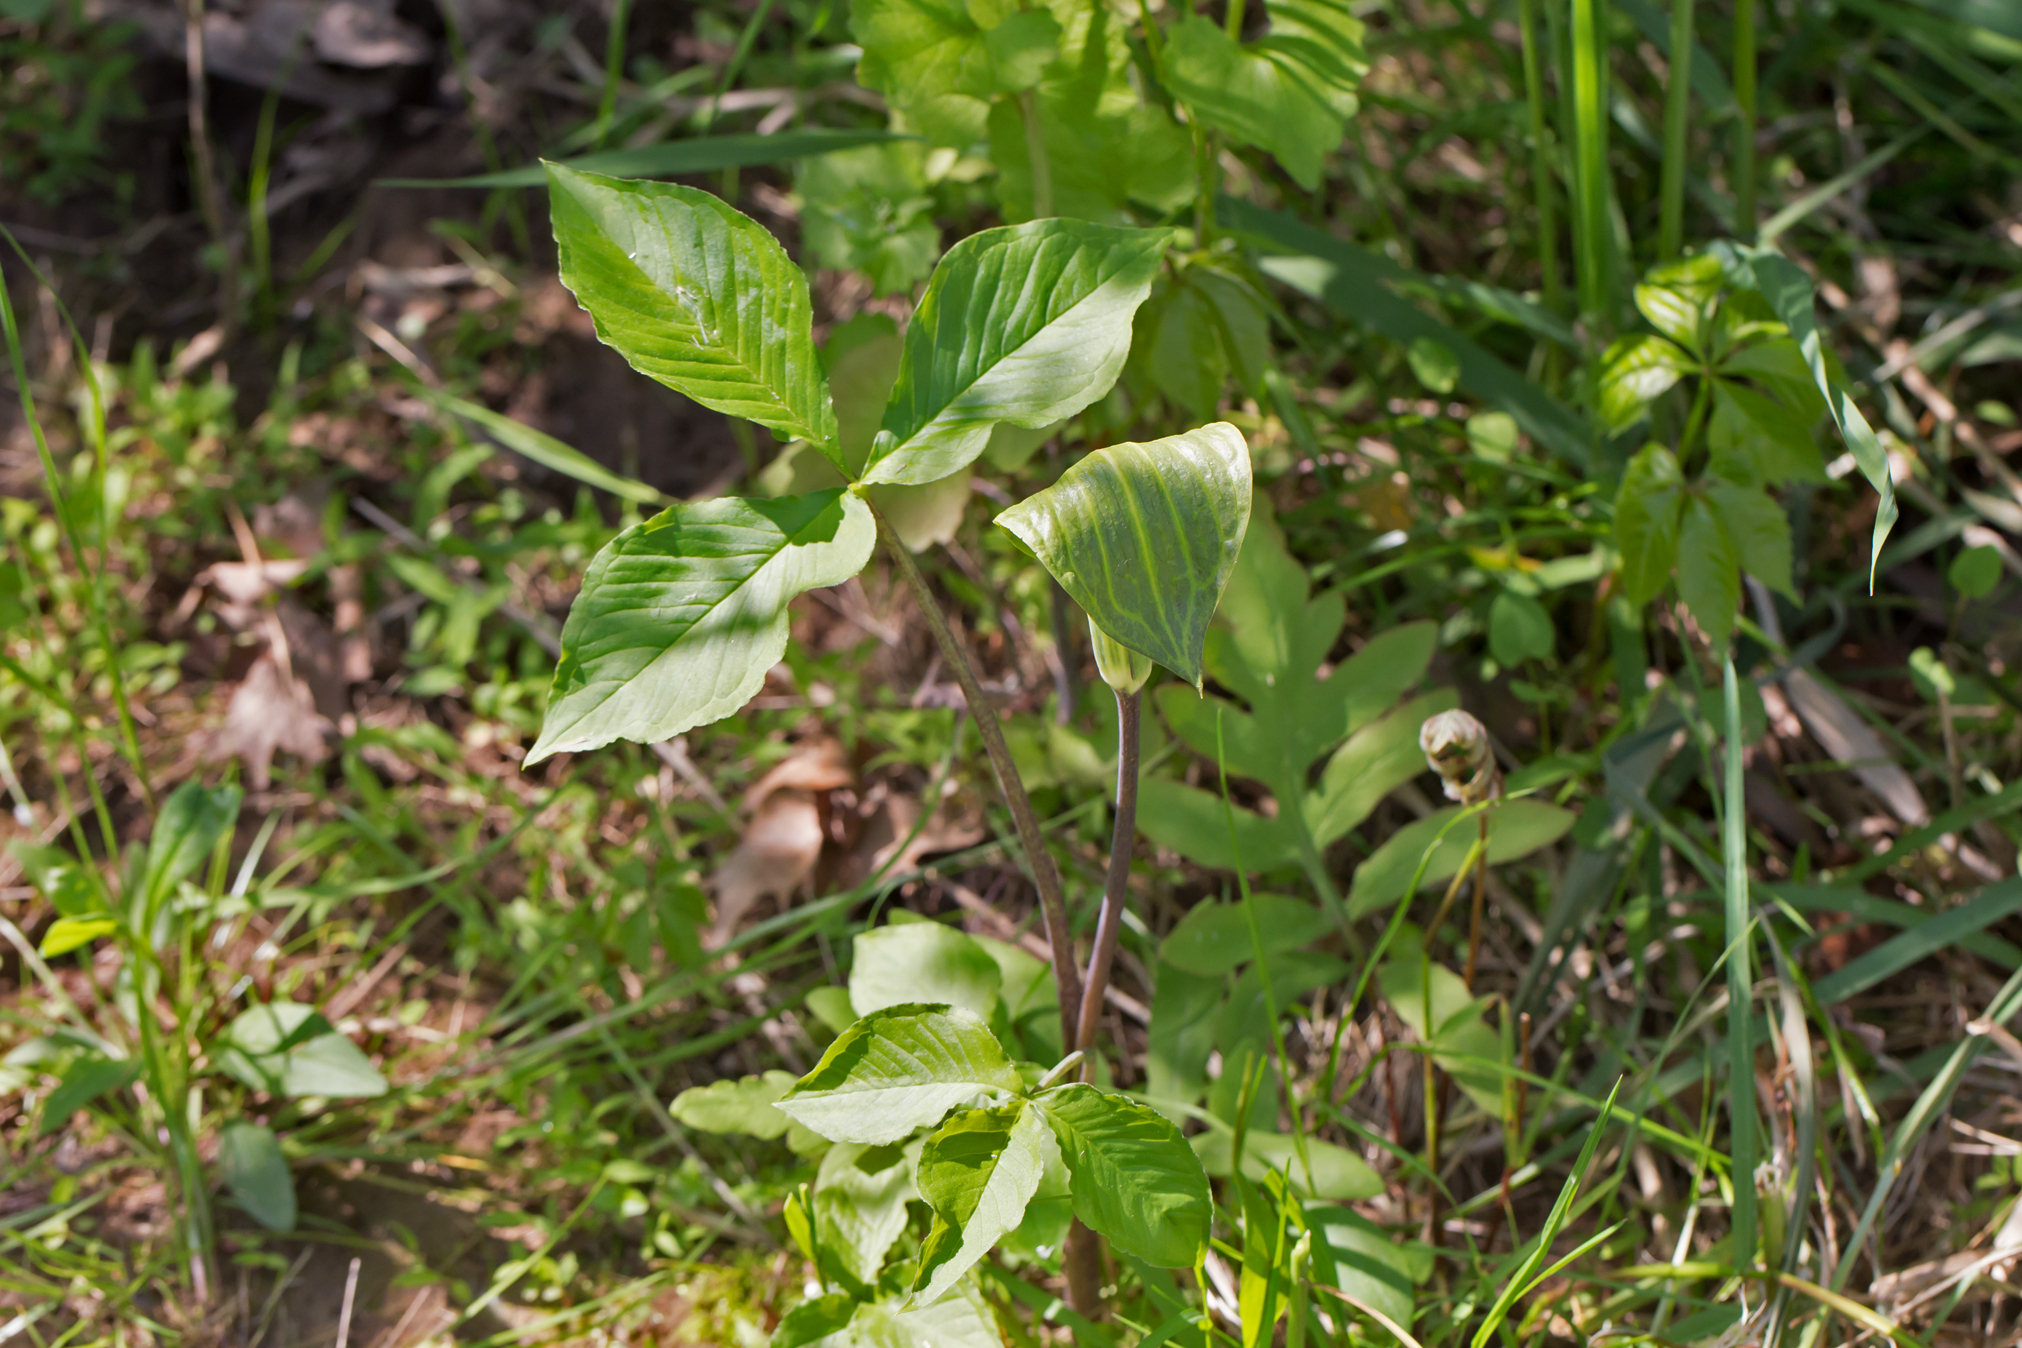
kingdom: Plantae
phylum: Tracheophyta
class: Liliopsida
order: Alismatales
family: Araceae
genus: Arisaema
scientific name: Arisaema triphyllum
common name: Jack-in-the-pulpit
